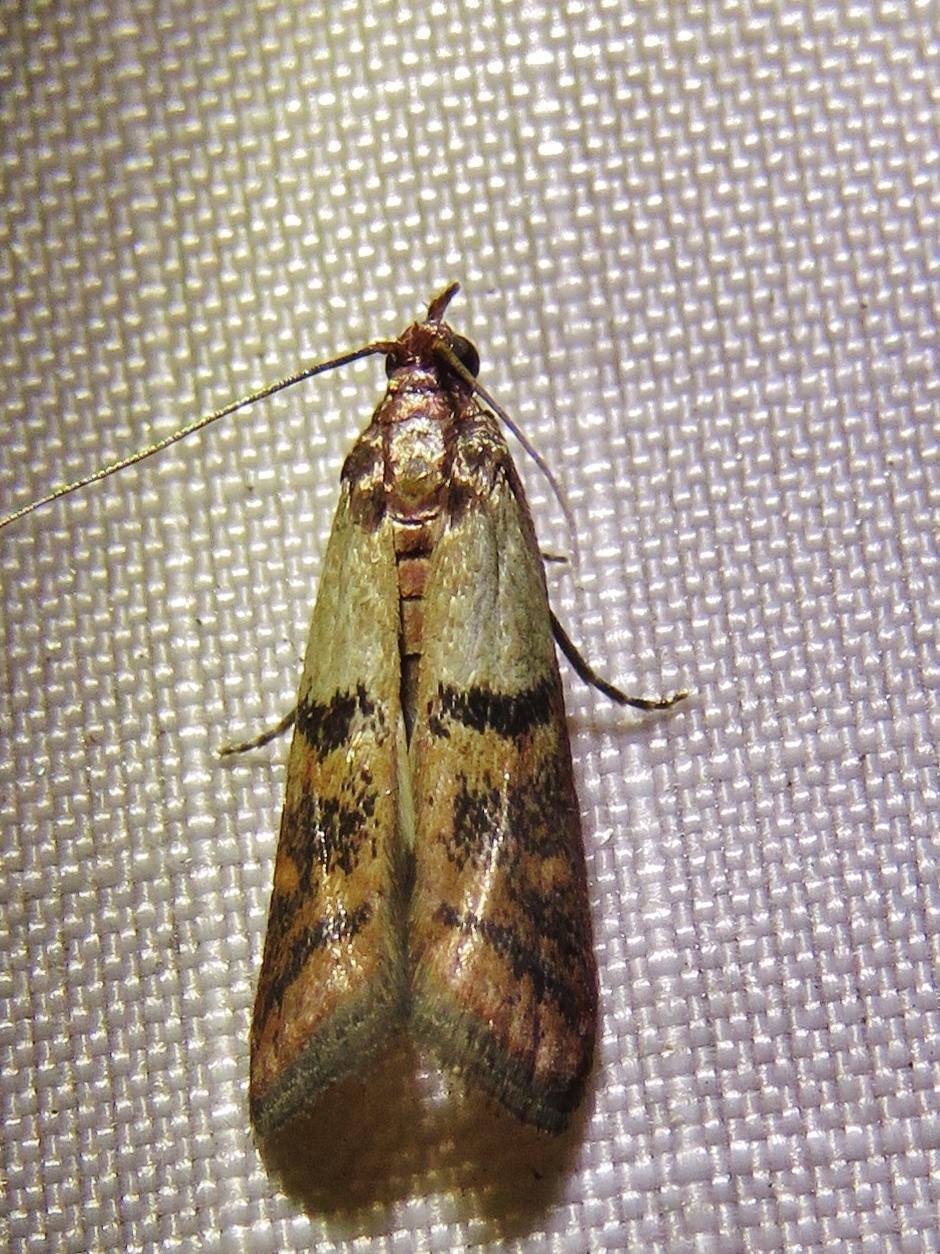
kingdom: Animalia
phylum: Arthropoda
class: Insecta
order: Lepidoptera
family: Pyralidae
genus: Plodia
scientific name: Plodia interpunctella
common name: Indian meal moth
